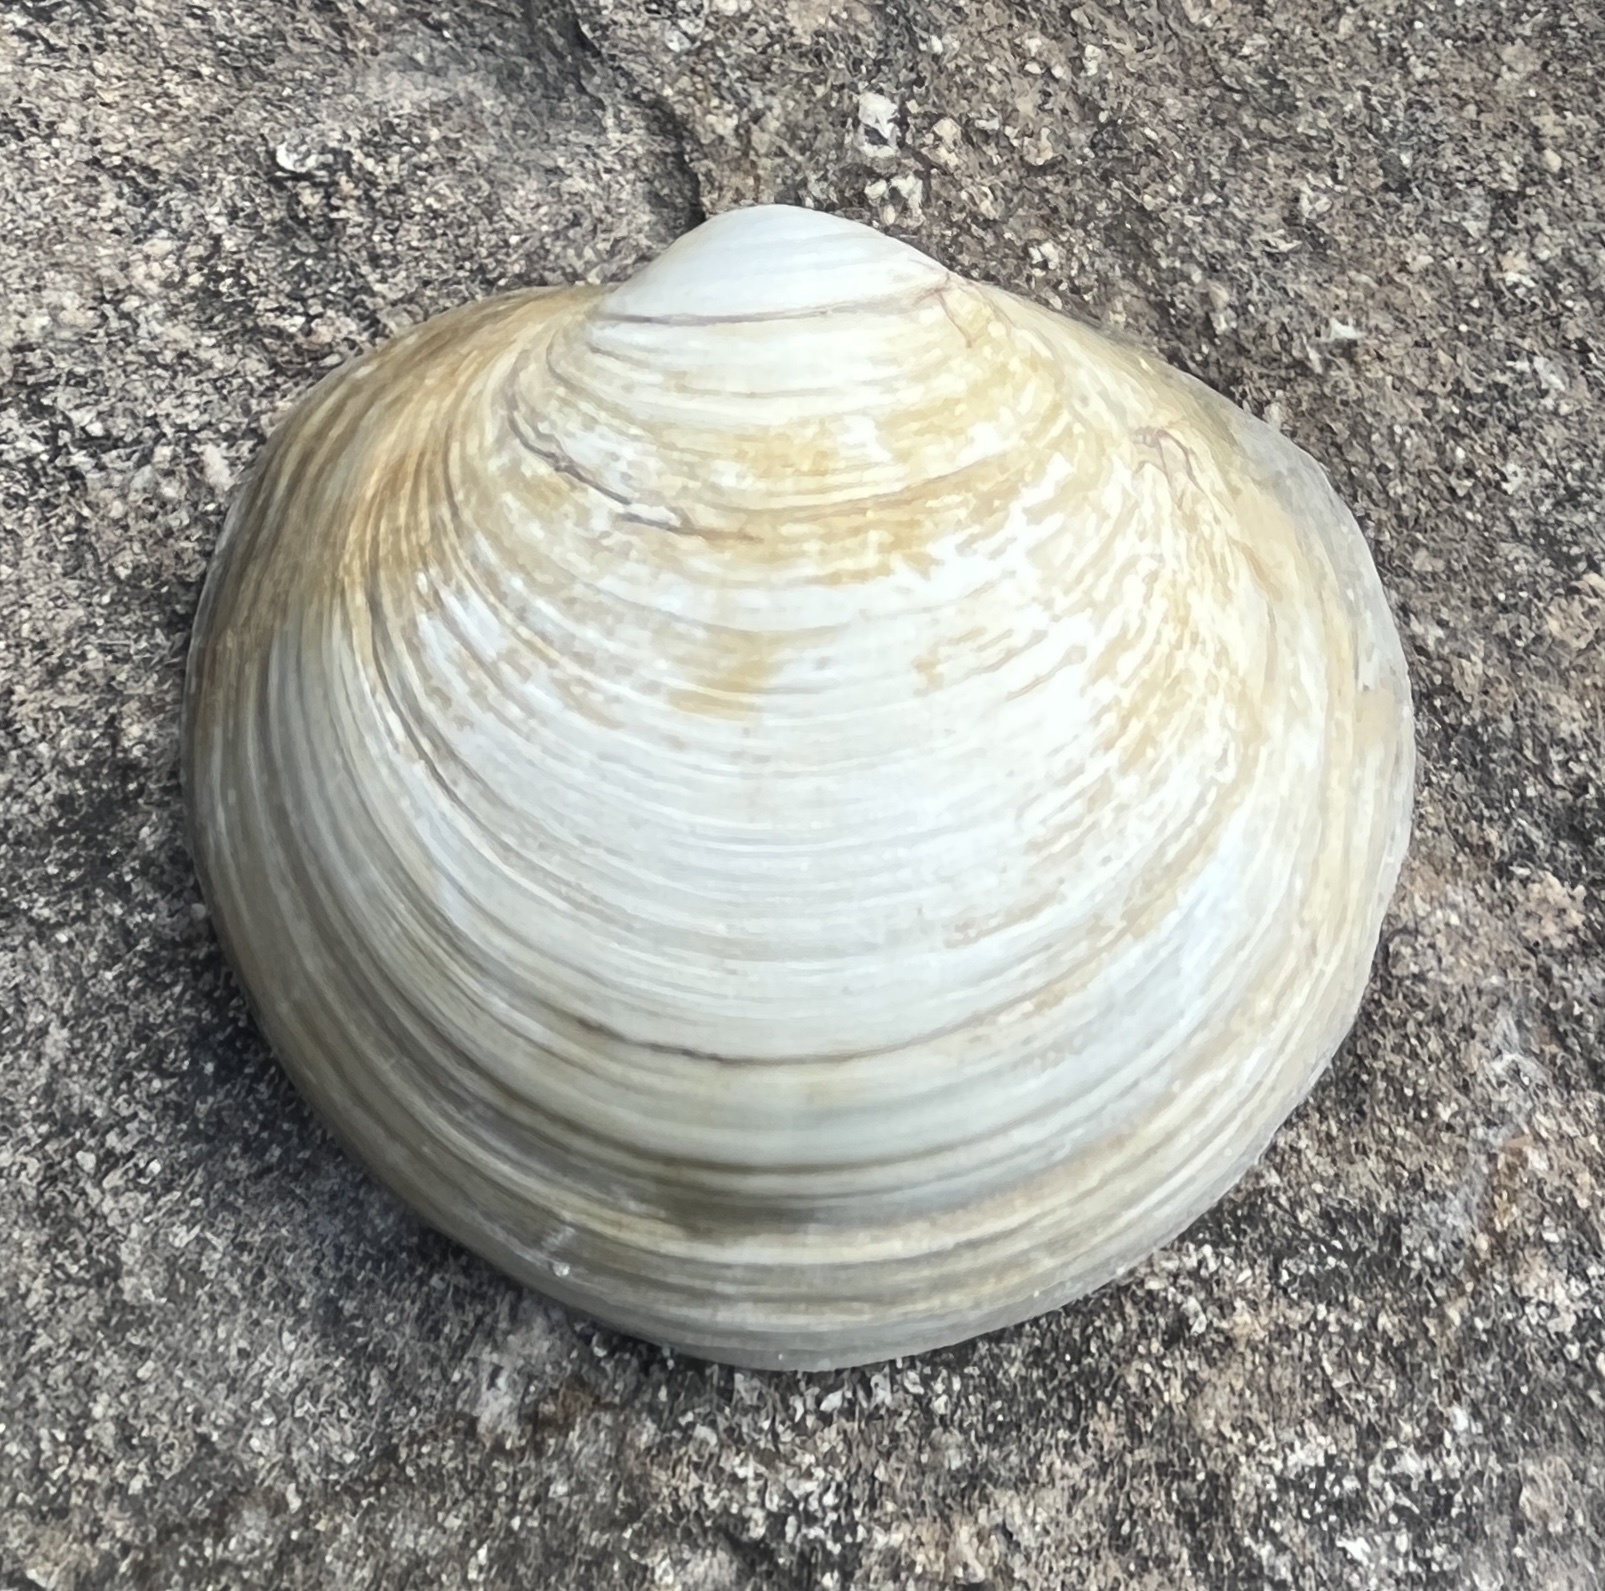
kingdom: Animalia
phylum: Mollusca
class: Bivalvia
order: Lucinida
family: Lucinidae
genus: Pegophysema
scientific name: Pegophysema schrammi
